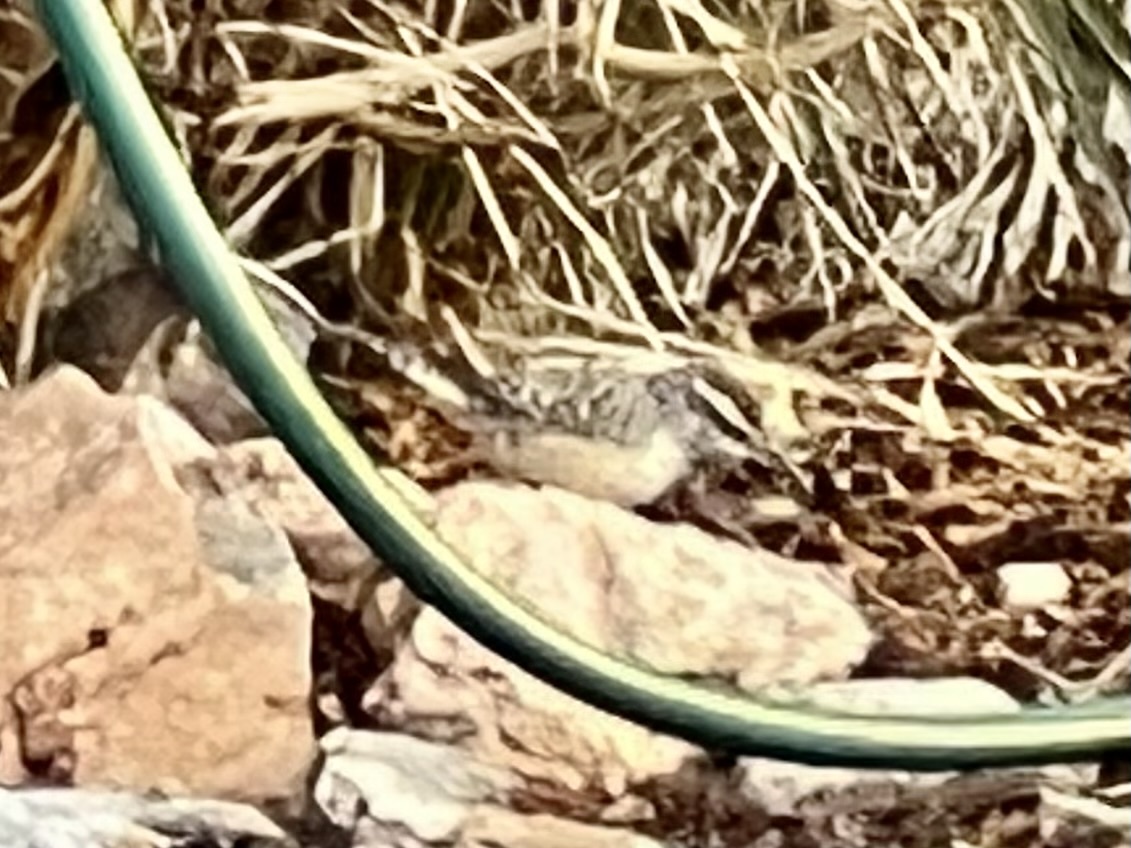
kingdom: Animalia
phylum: Chordata
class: Aves
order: Passeriformes
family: Troglodytidae
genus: Campylorhynchus
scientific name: Campylorhynchus brunneicapillus
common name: Cactus wren
